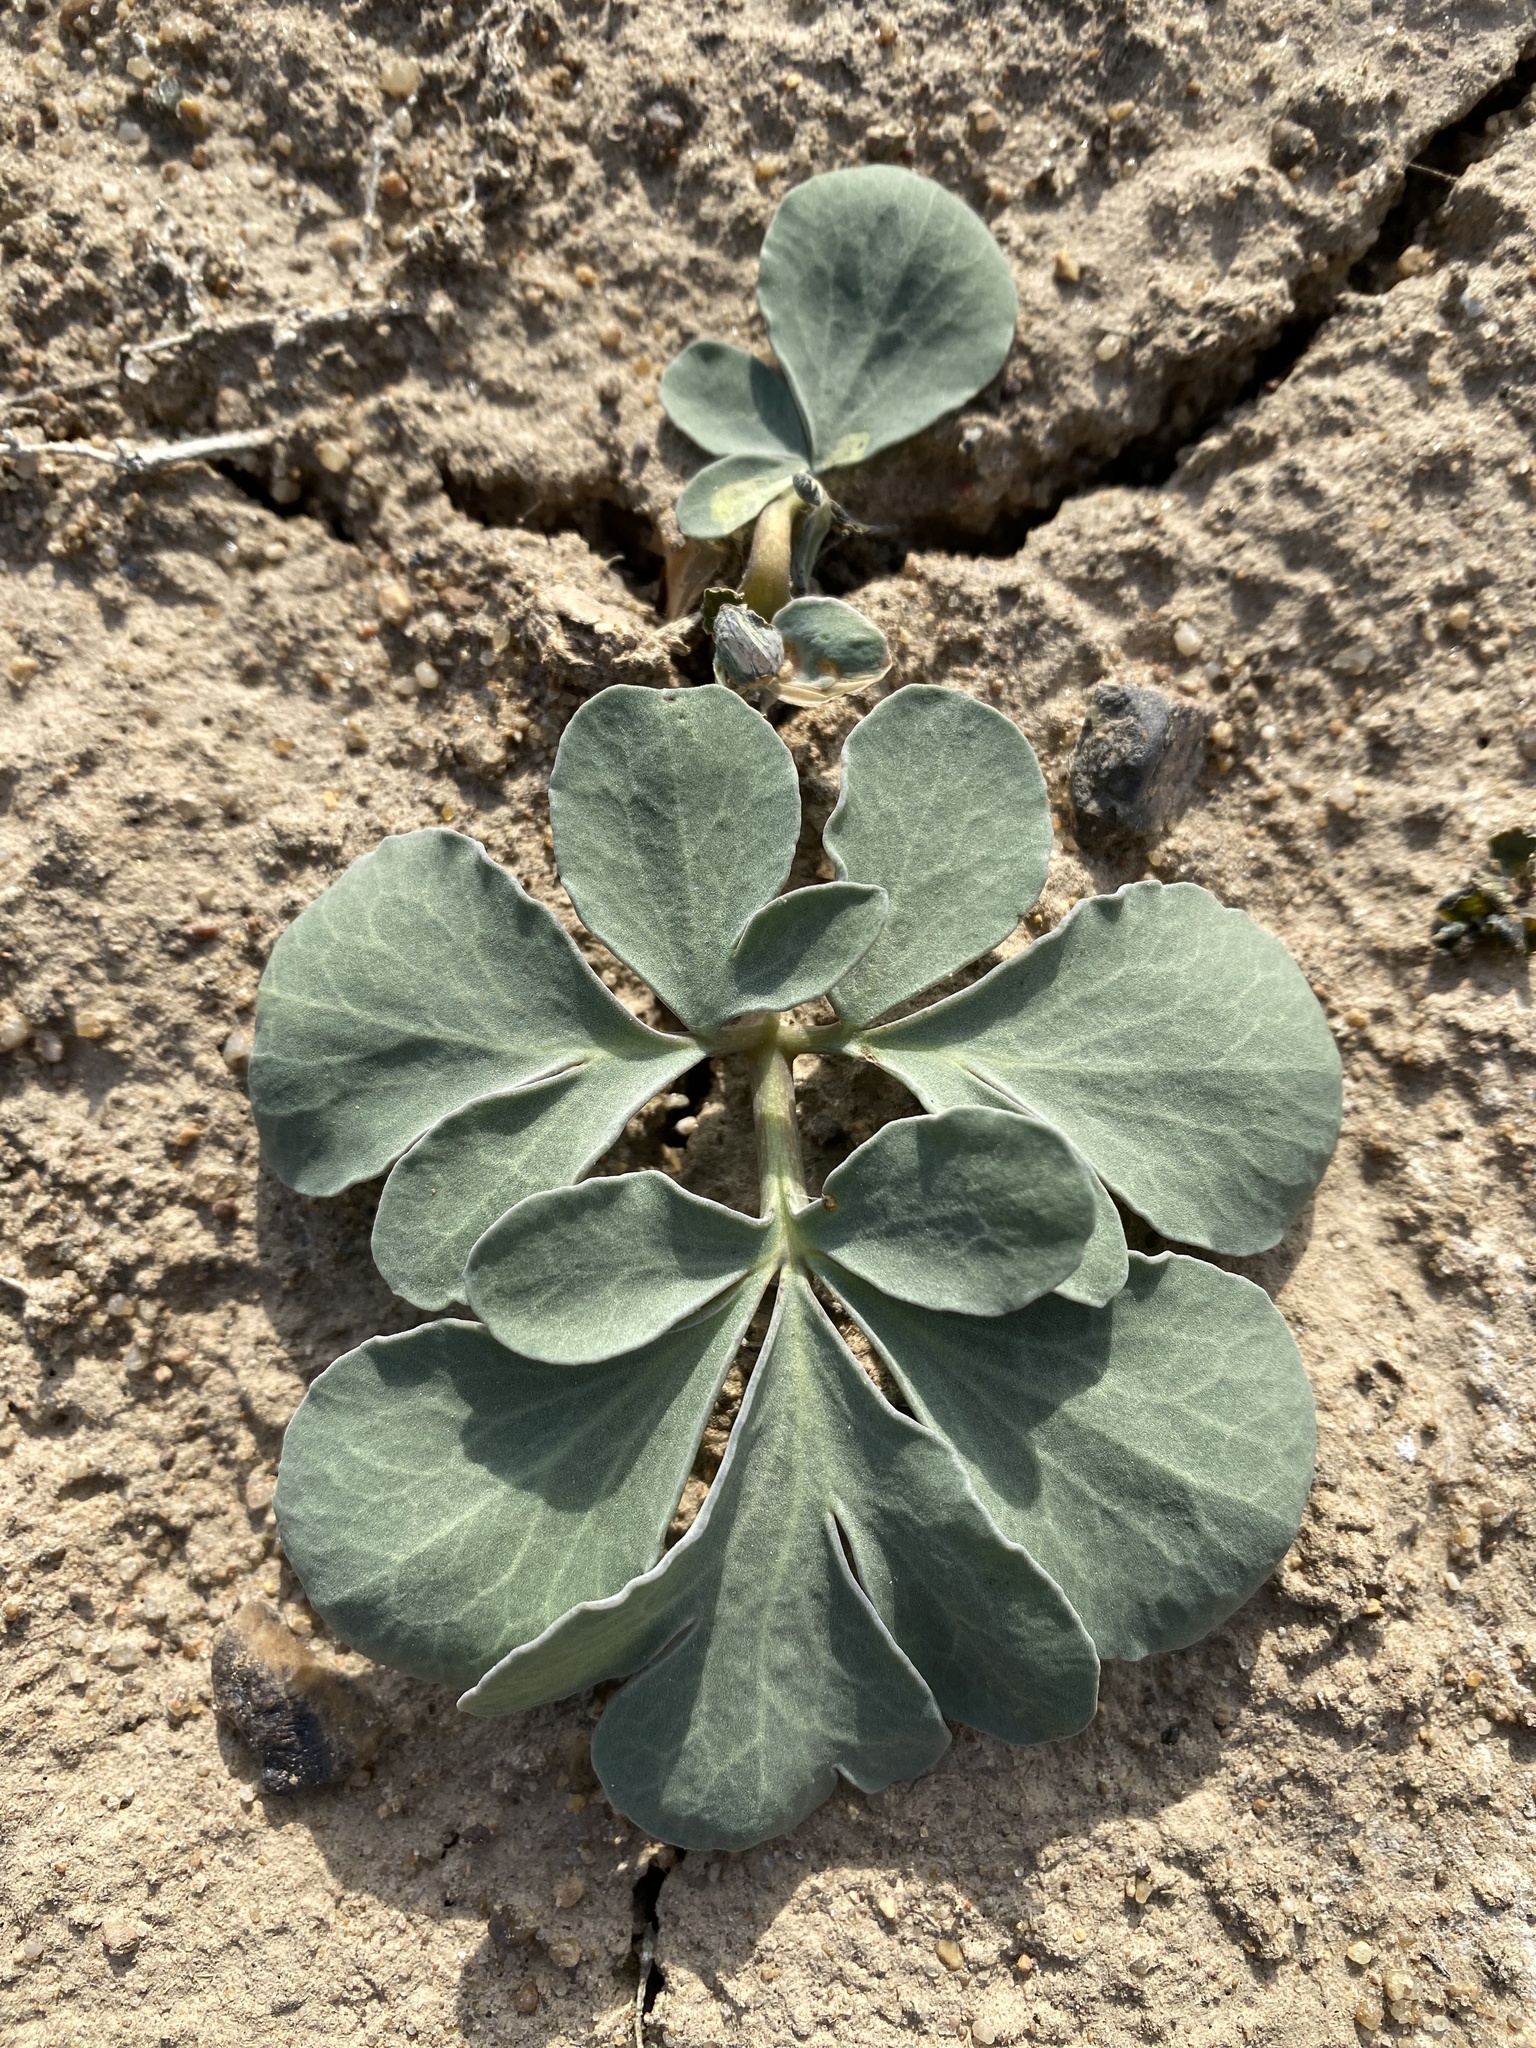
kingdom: Plantae
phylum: Tracheophyta
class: Magnoliopsida
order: Ranunculales
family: Berberidaceae
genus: Leontice
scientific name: Leontice incerta
